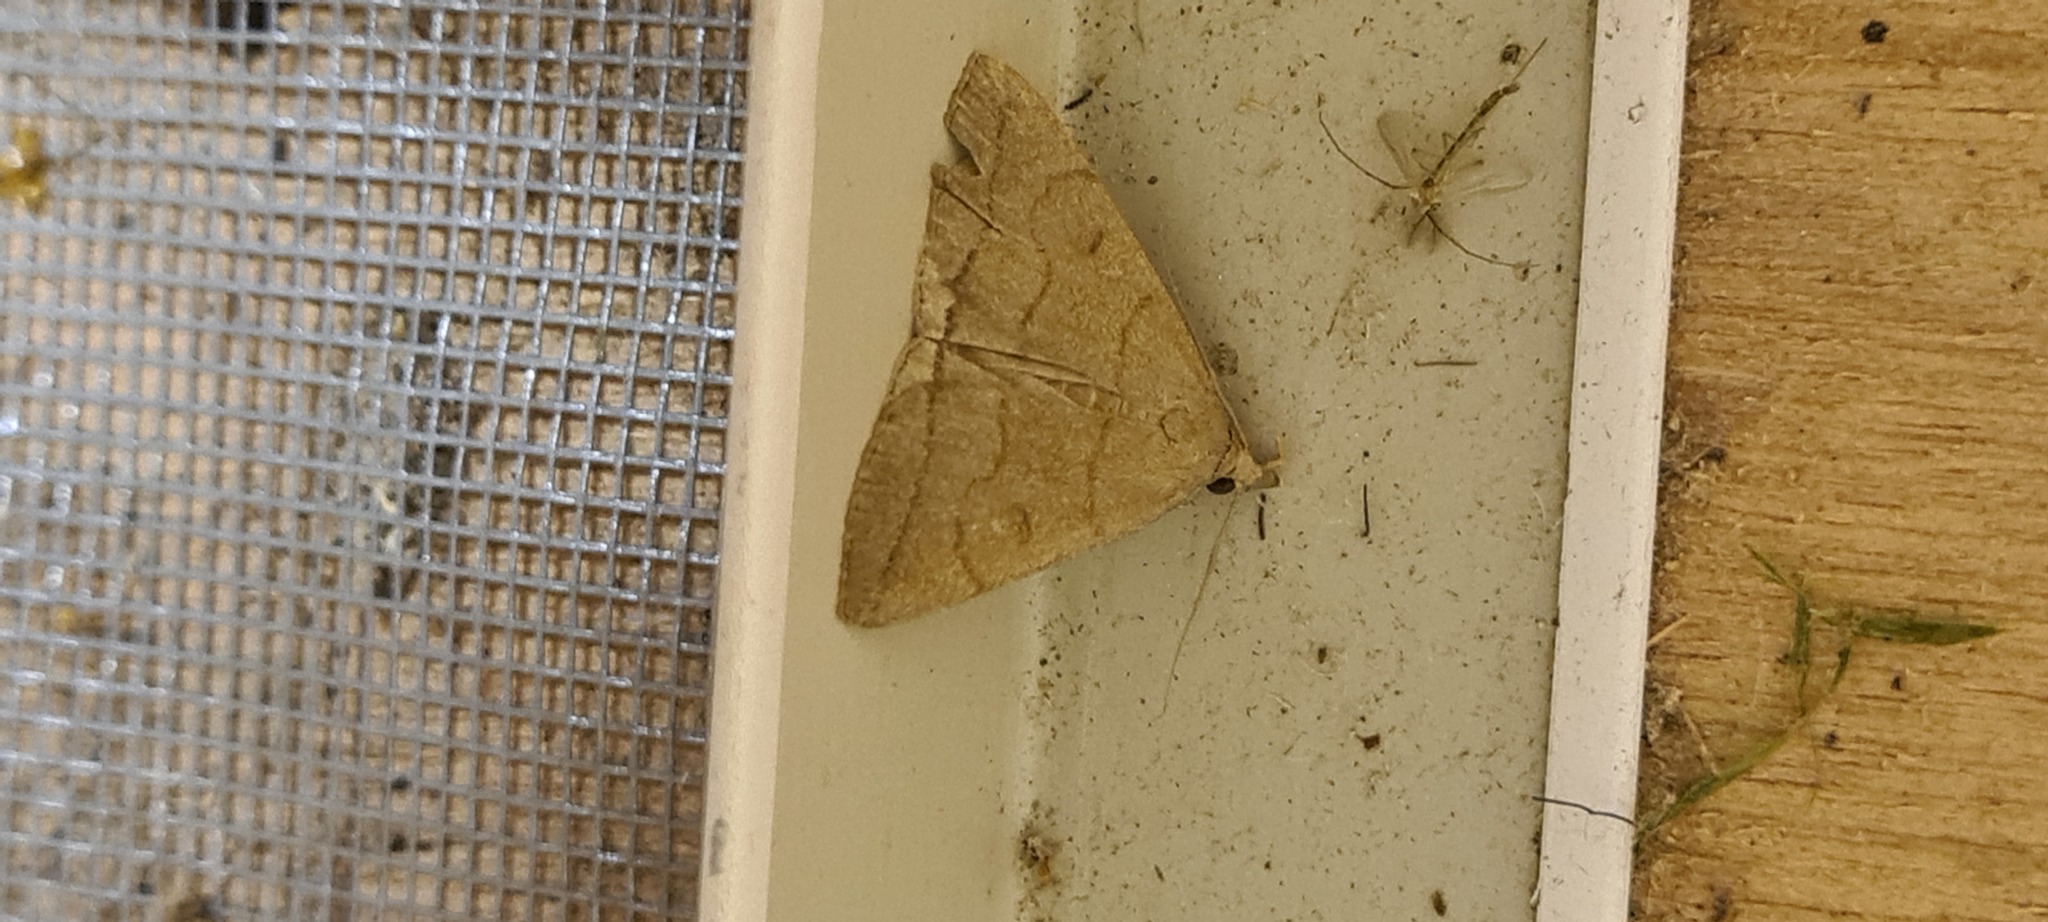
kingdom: Animalia
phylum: Arthropoda
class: Insecta
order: Lepidoptera
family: Erebidae
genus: Herminia
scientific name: Herminia tarsipennalis
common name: Fan-foot
